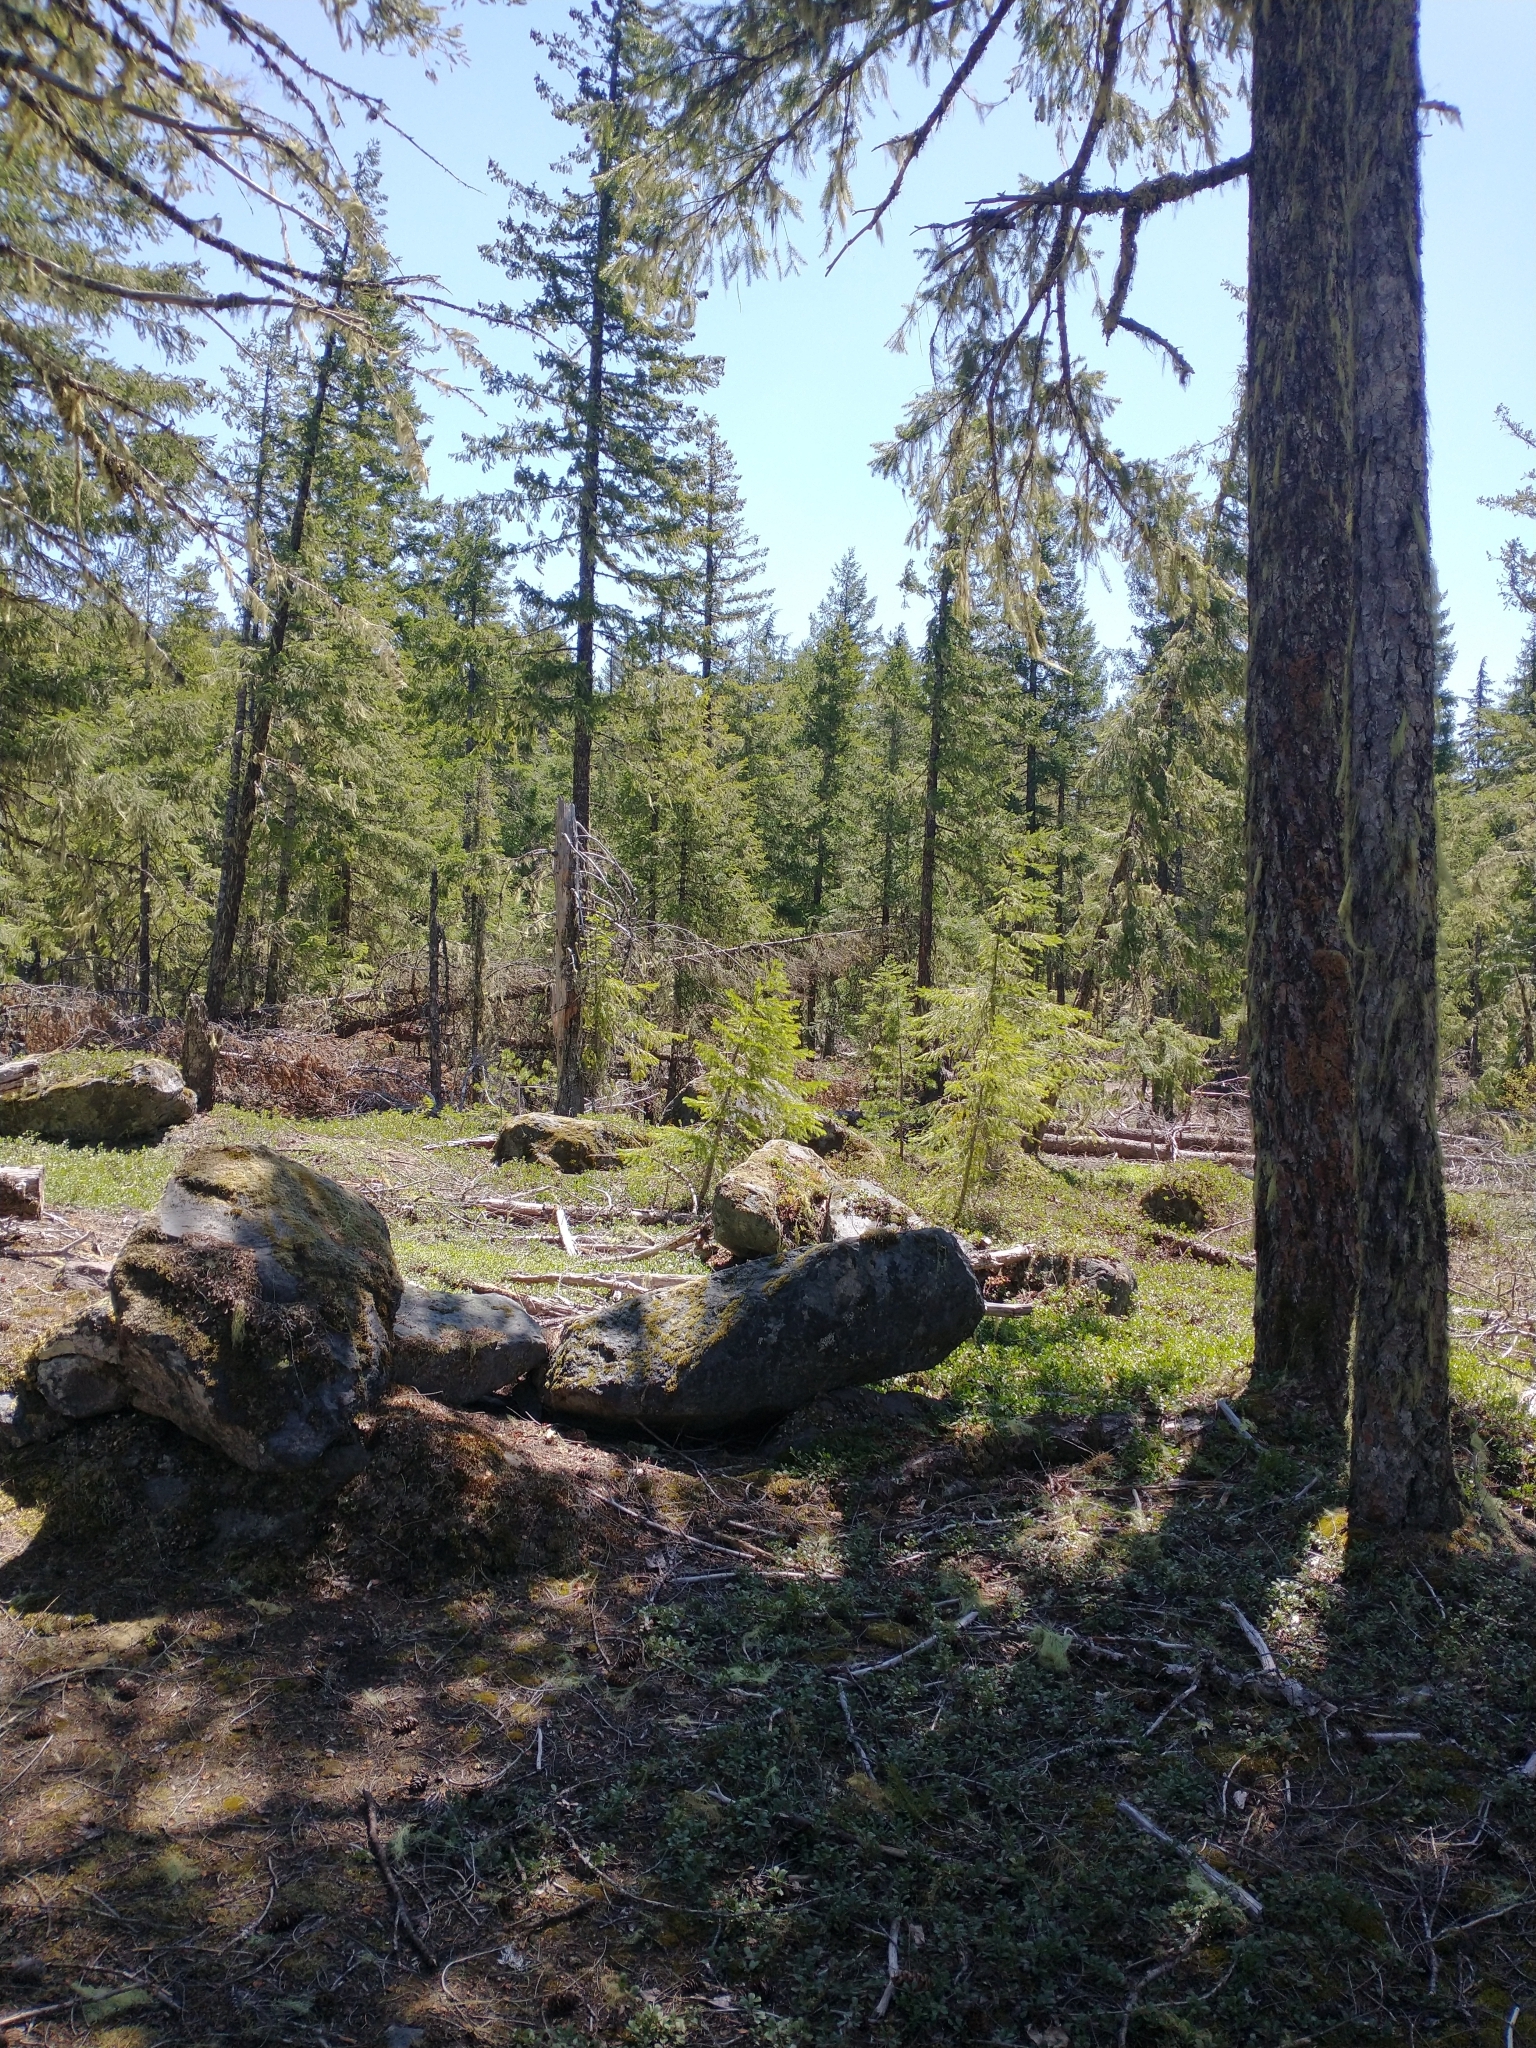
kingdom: Plantae
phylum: Tracheophyta
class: Pinopsida
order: Pinales
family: Pinaceae
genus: Pseudotsuga
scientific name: Pseudotsuga menziesii
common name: Douglas fir
